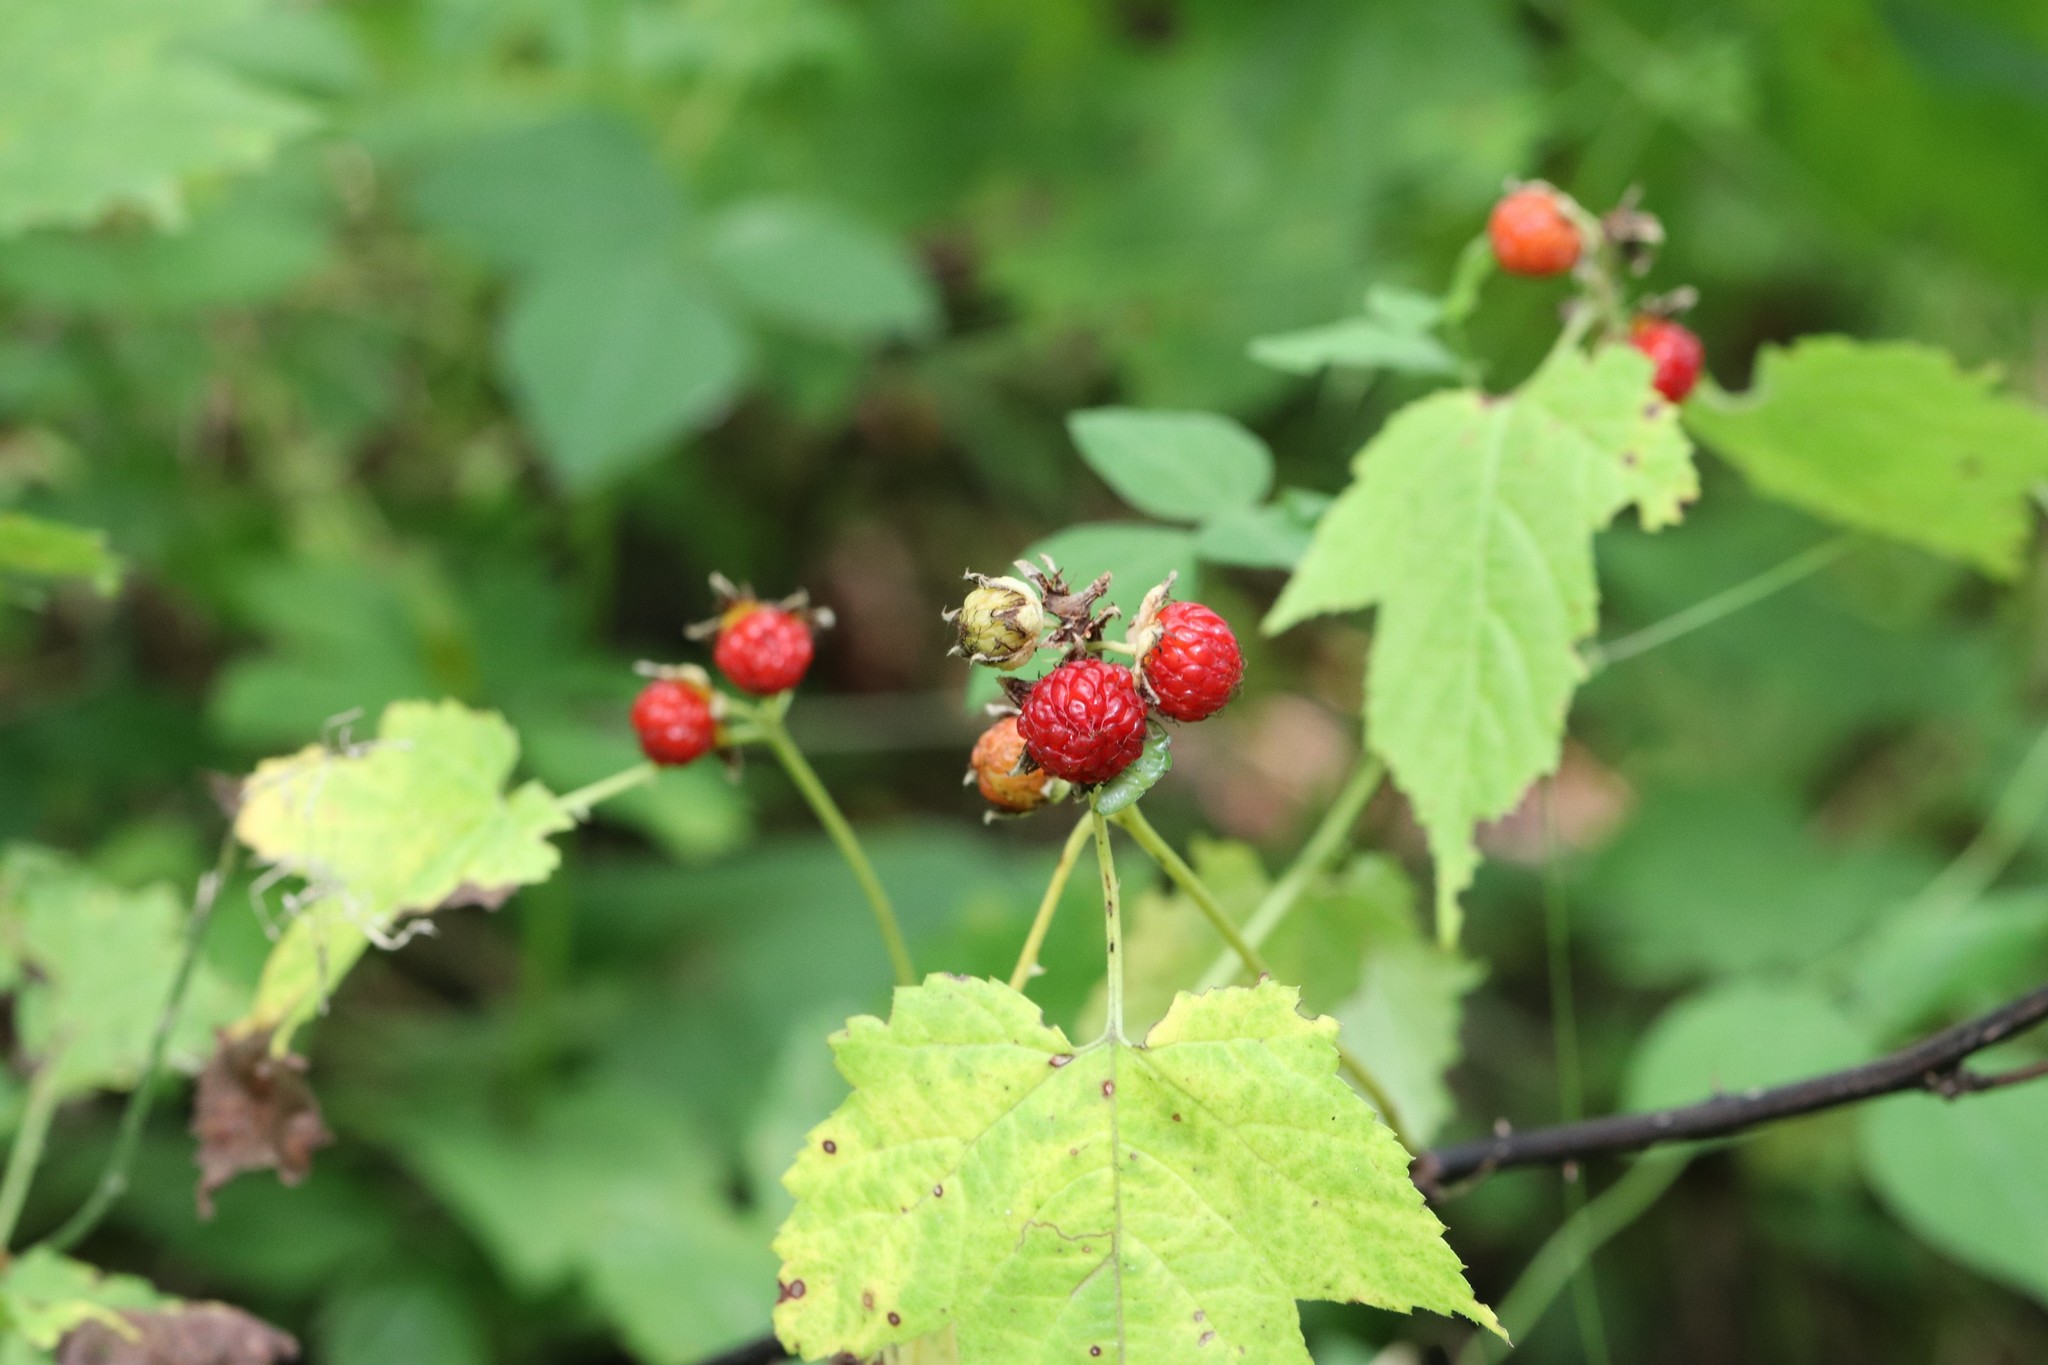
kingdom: Plantae
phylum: Tracheophyta
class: Magnoliopsida
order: Rosales
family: Rosaceae
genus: Rubus
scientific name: Rubus crataegifolius
